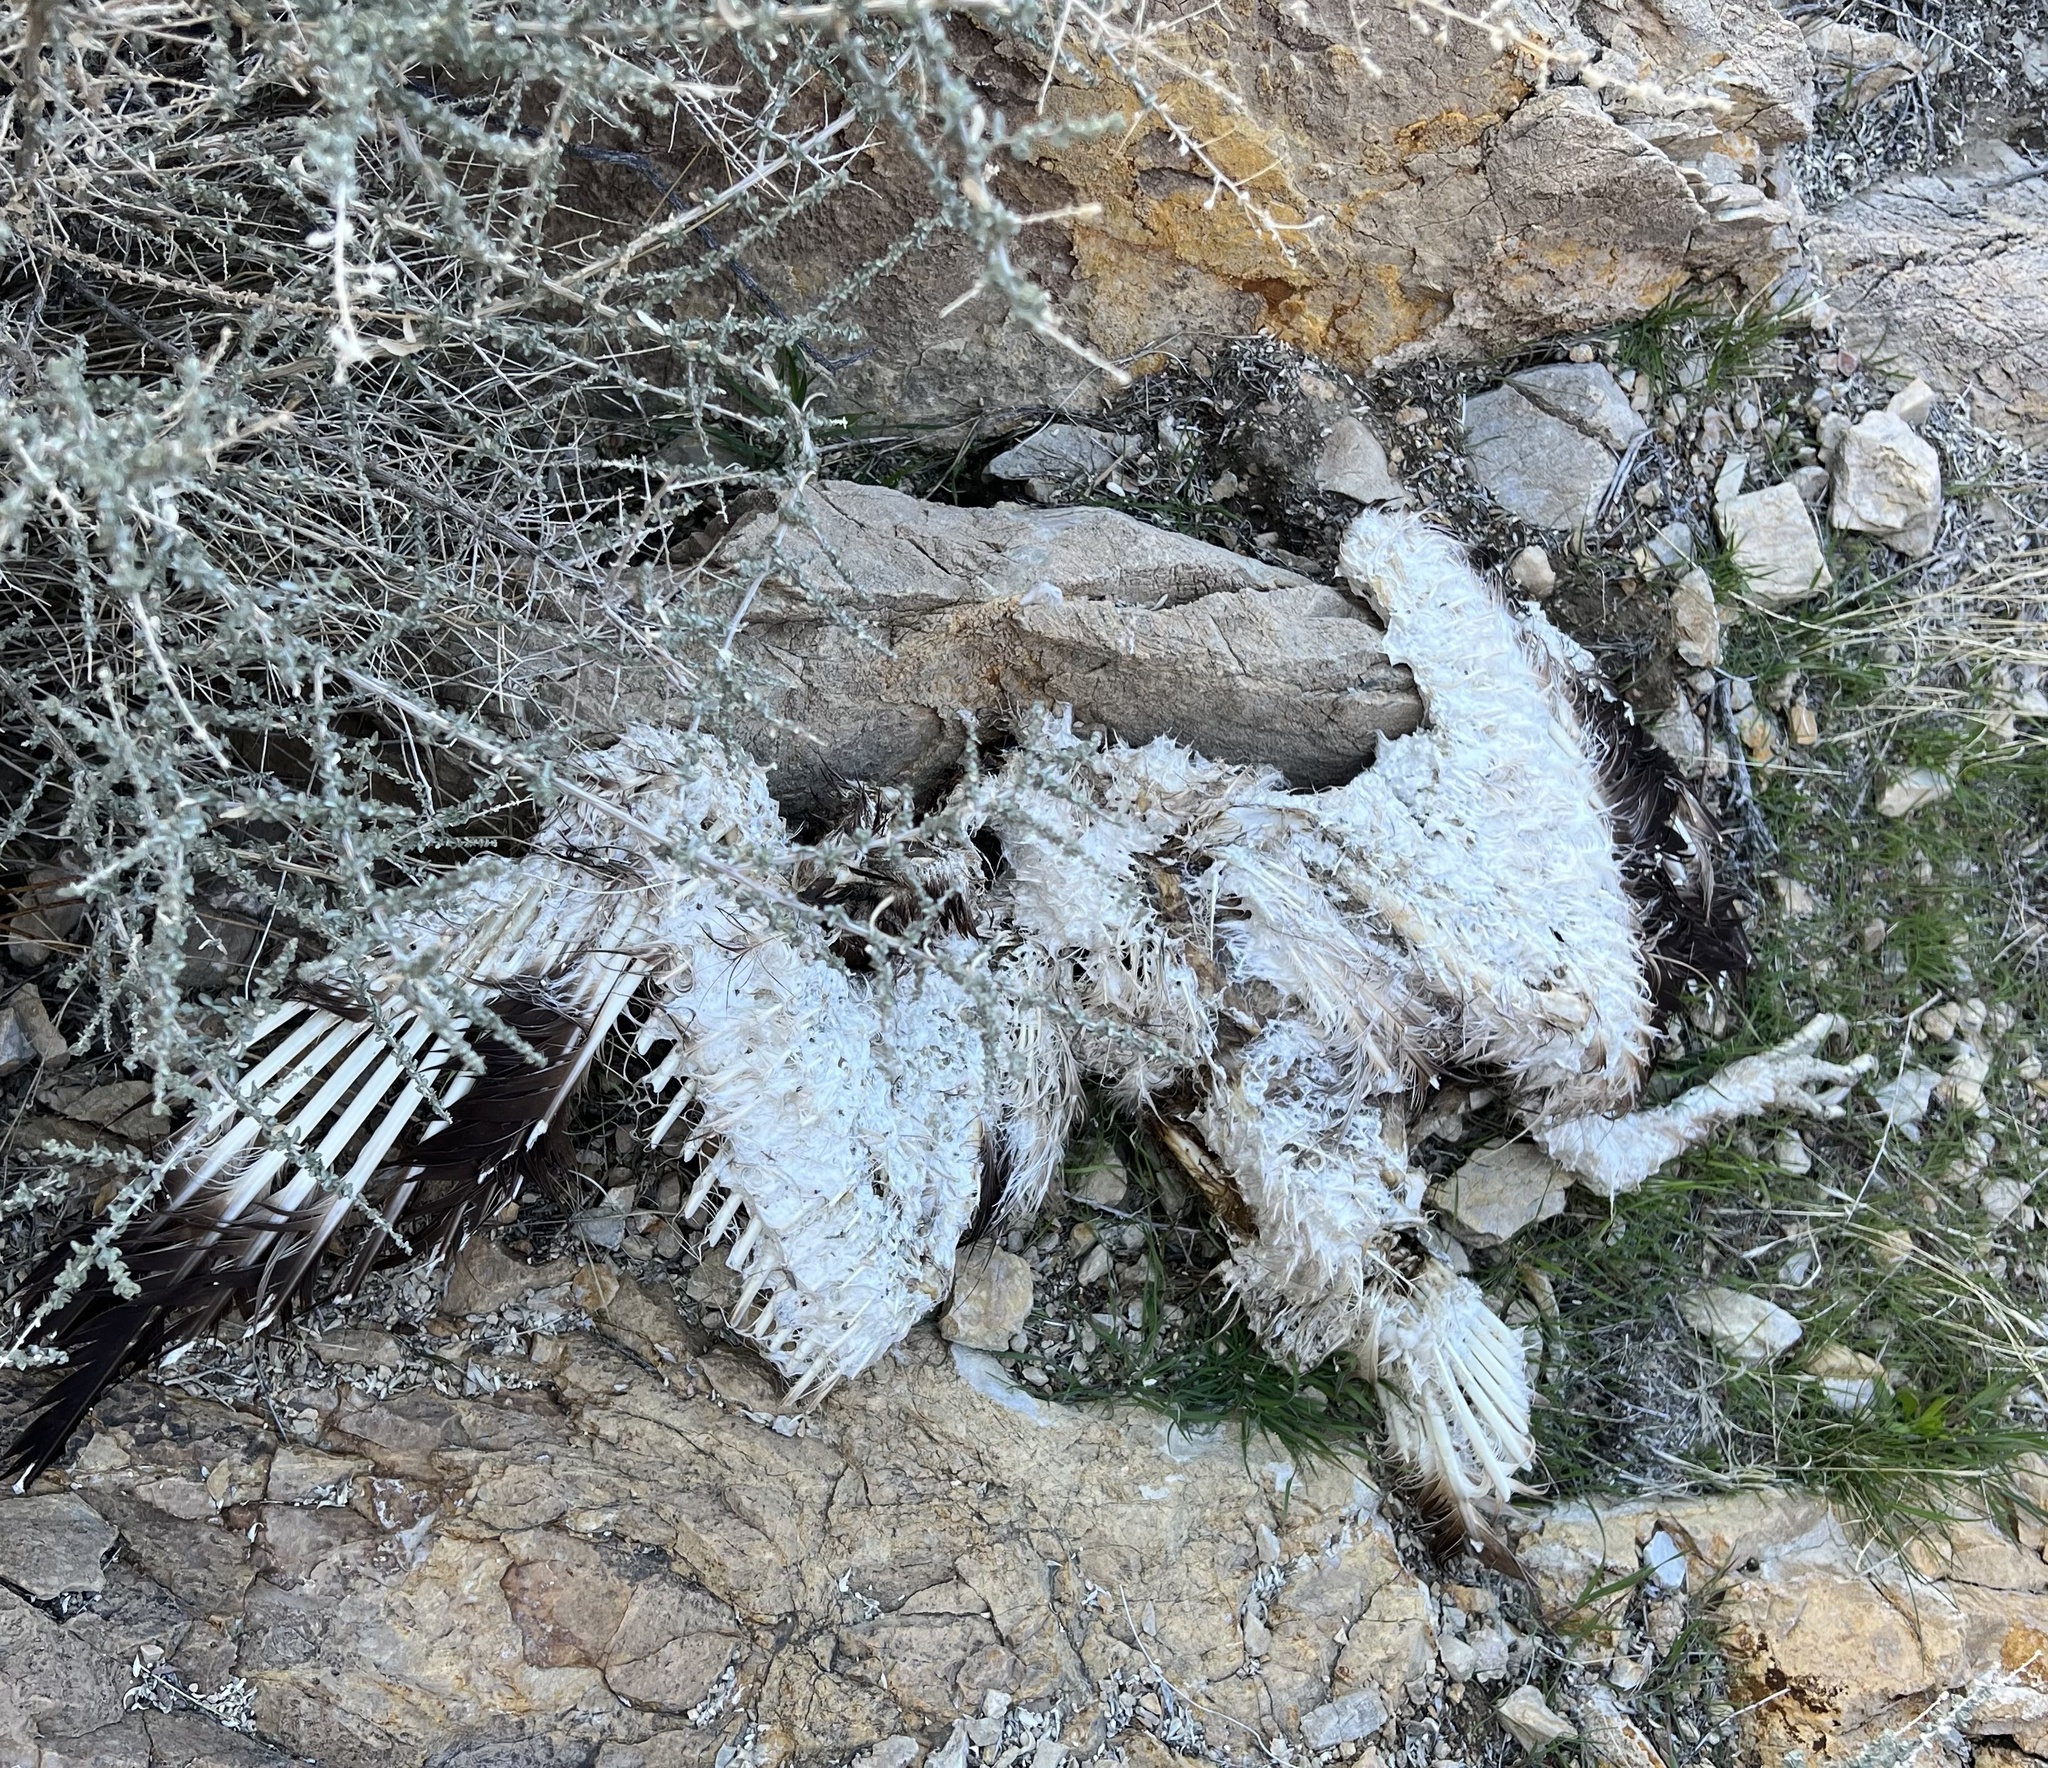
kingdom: Animalia
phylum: Chordata
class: Aves
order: Accipitriformes
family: Accipitridae
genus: Aquila
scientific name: Aquila chrysaetos
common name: Golden eagle
